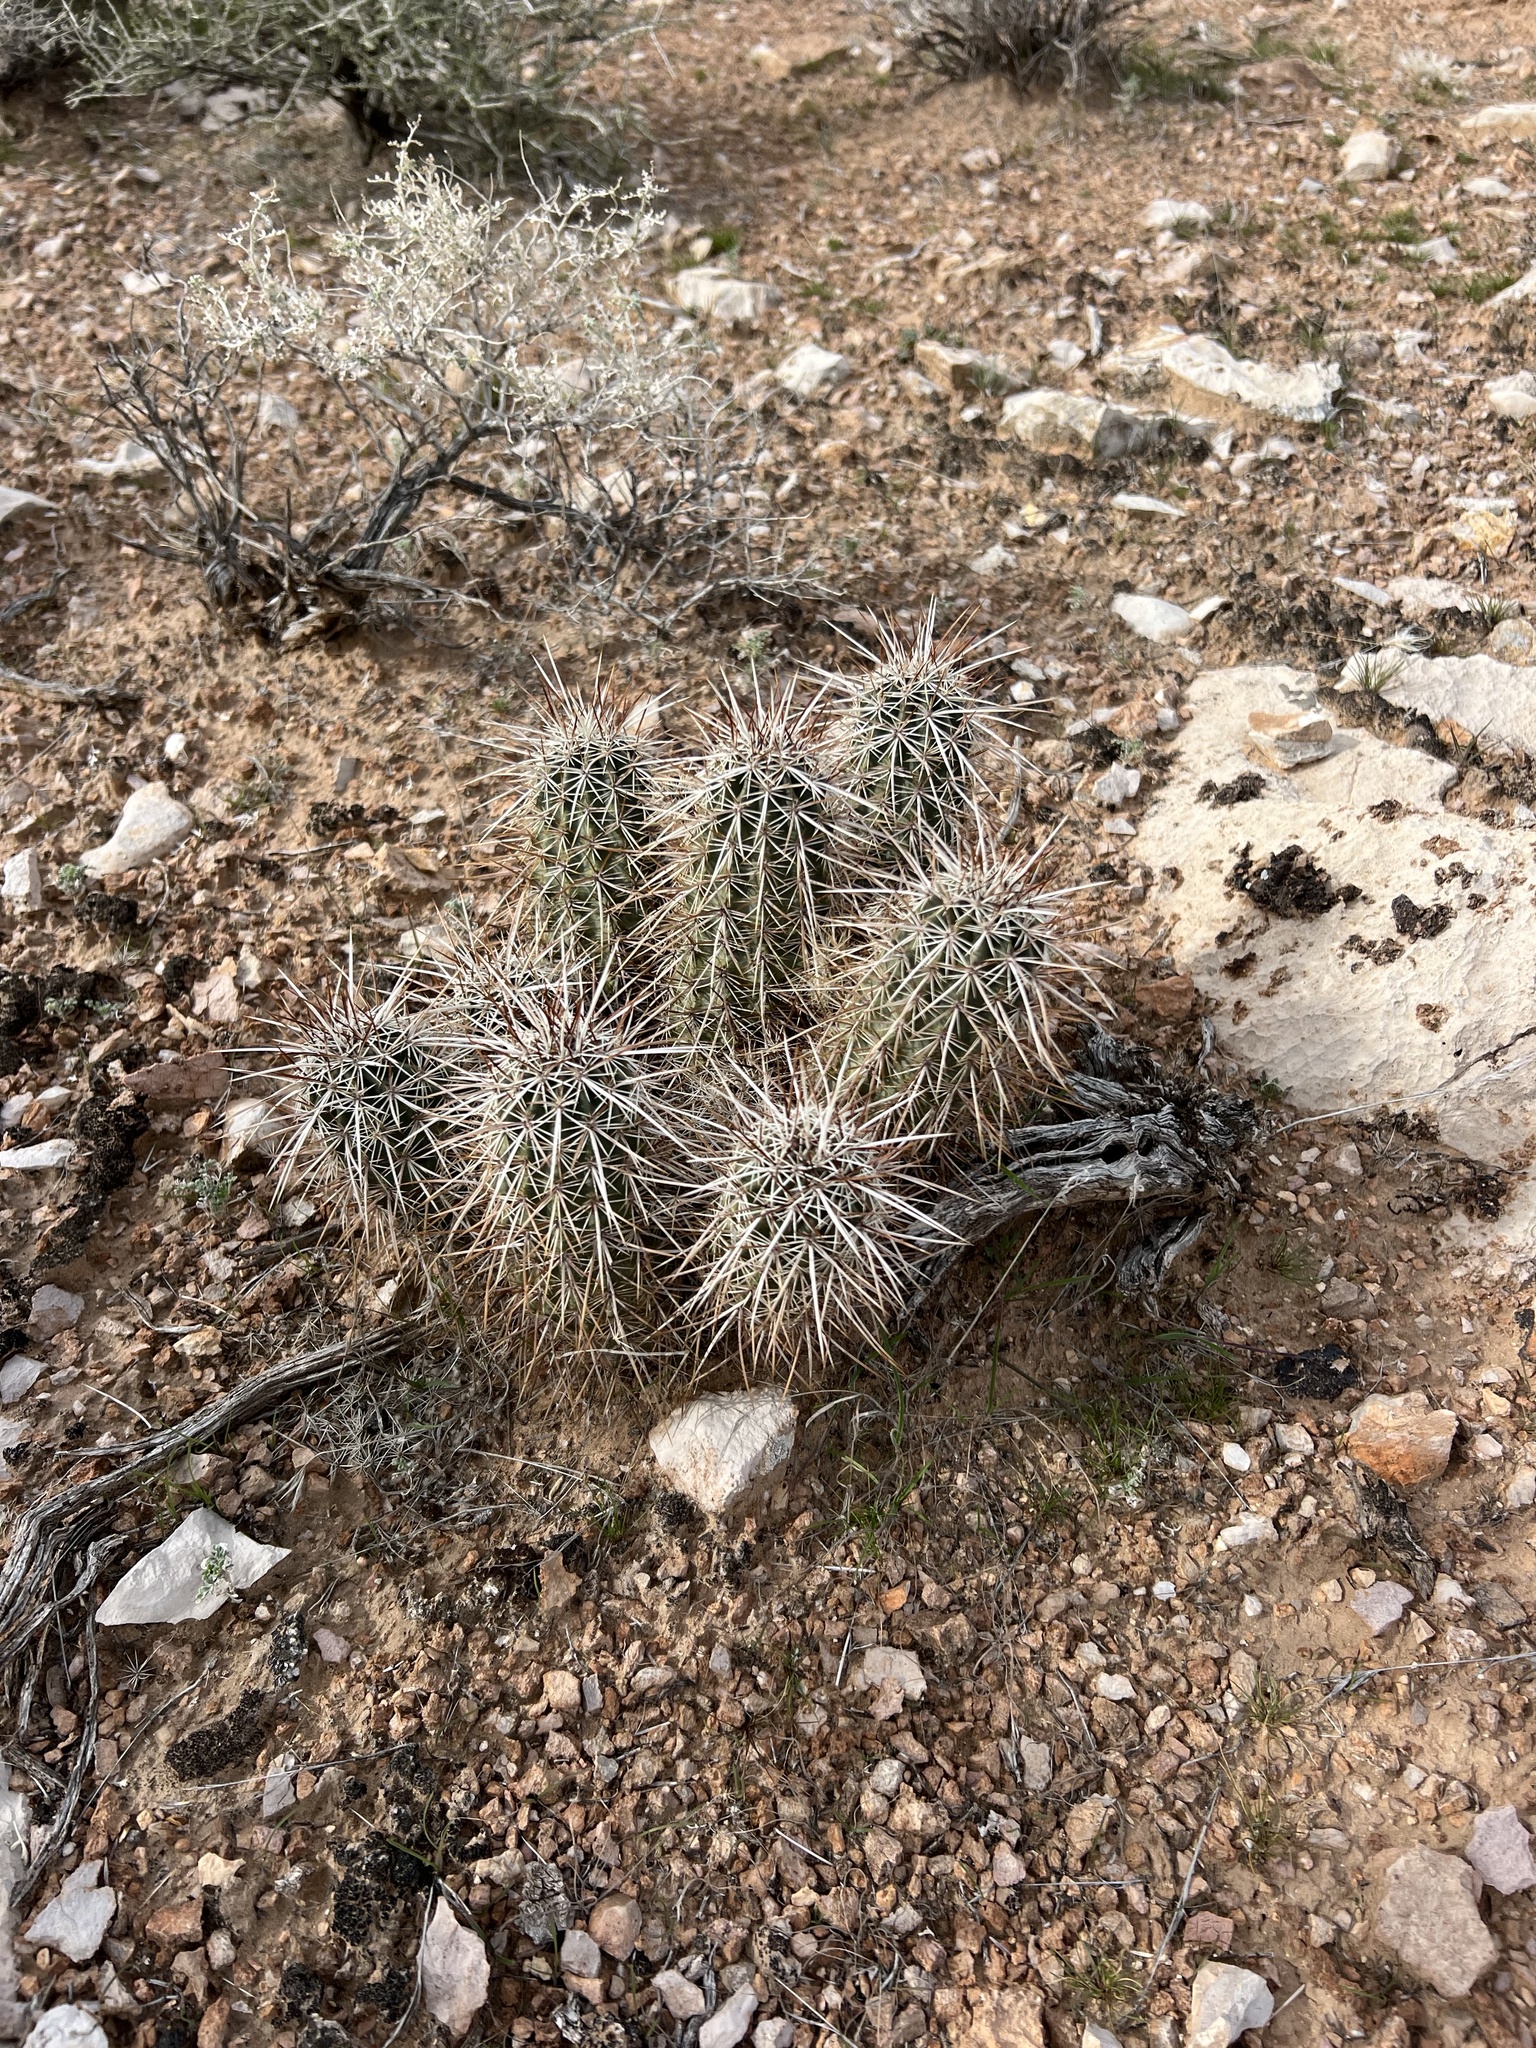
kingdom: Plantae
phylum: Tracheophyta
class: Magnoliopsida
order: Caryophyllales
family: Cactaceae
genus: Echinocereus
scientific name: Echinocereus engelmannii
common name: Engelmann's hedgehog cactus
